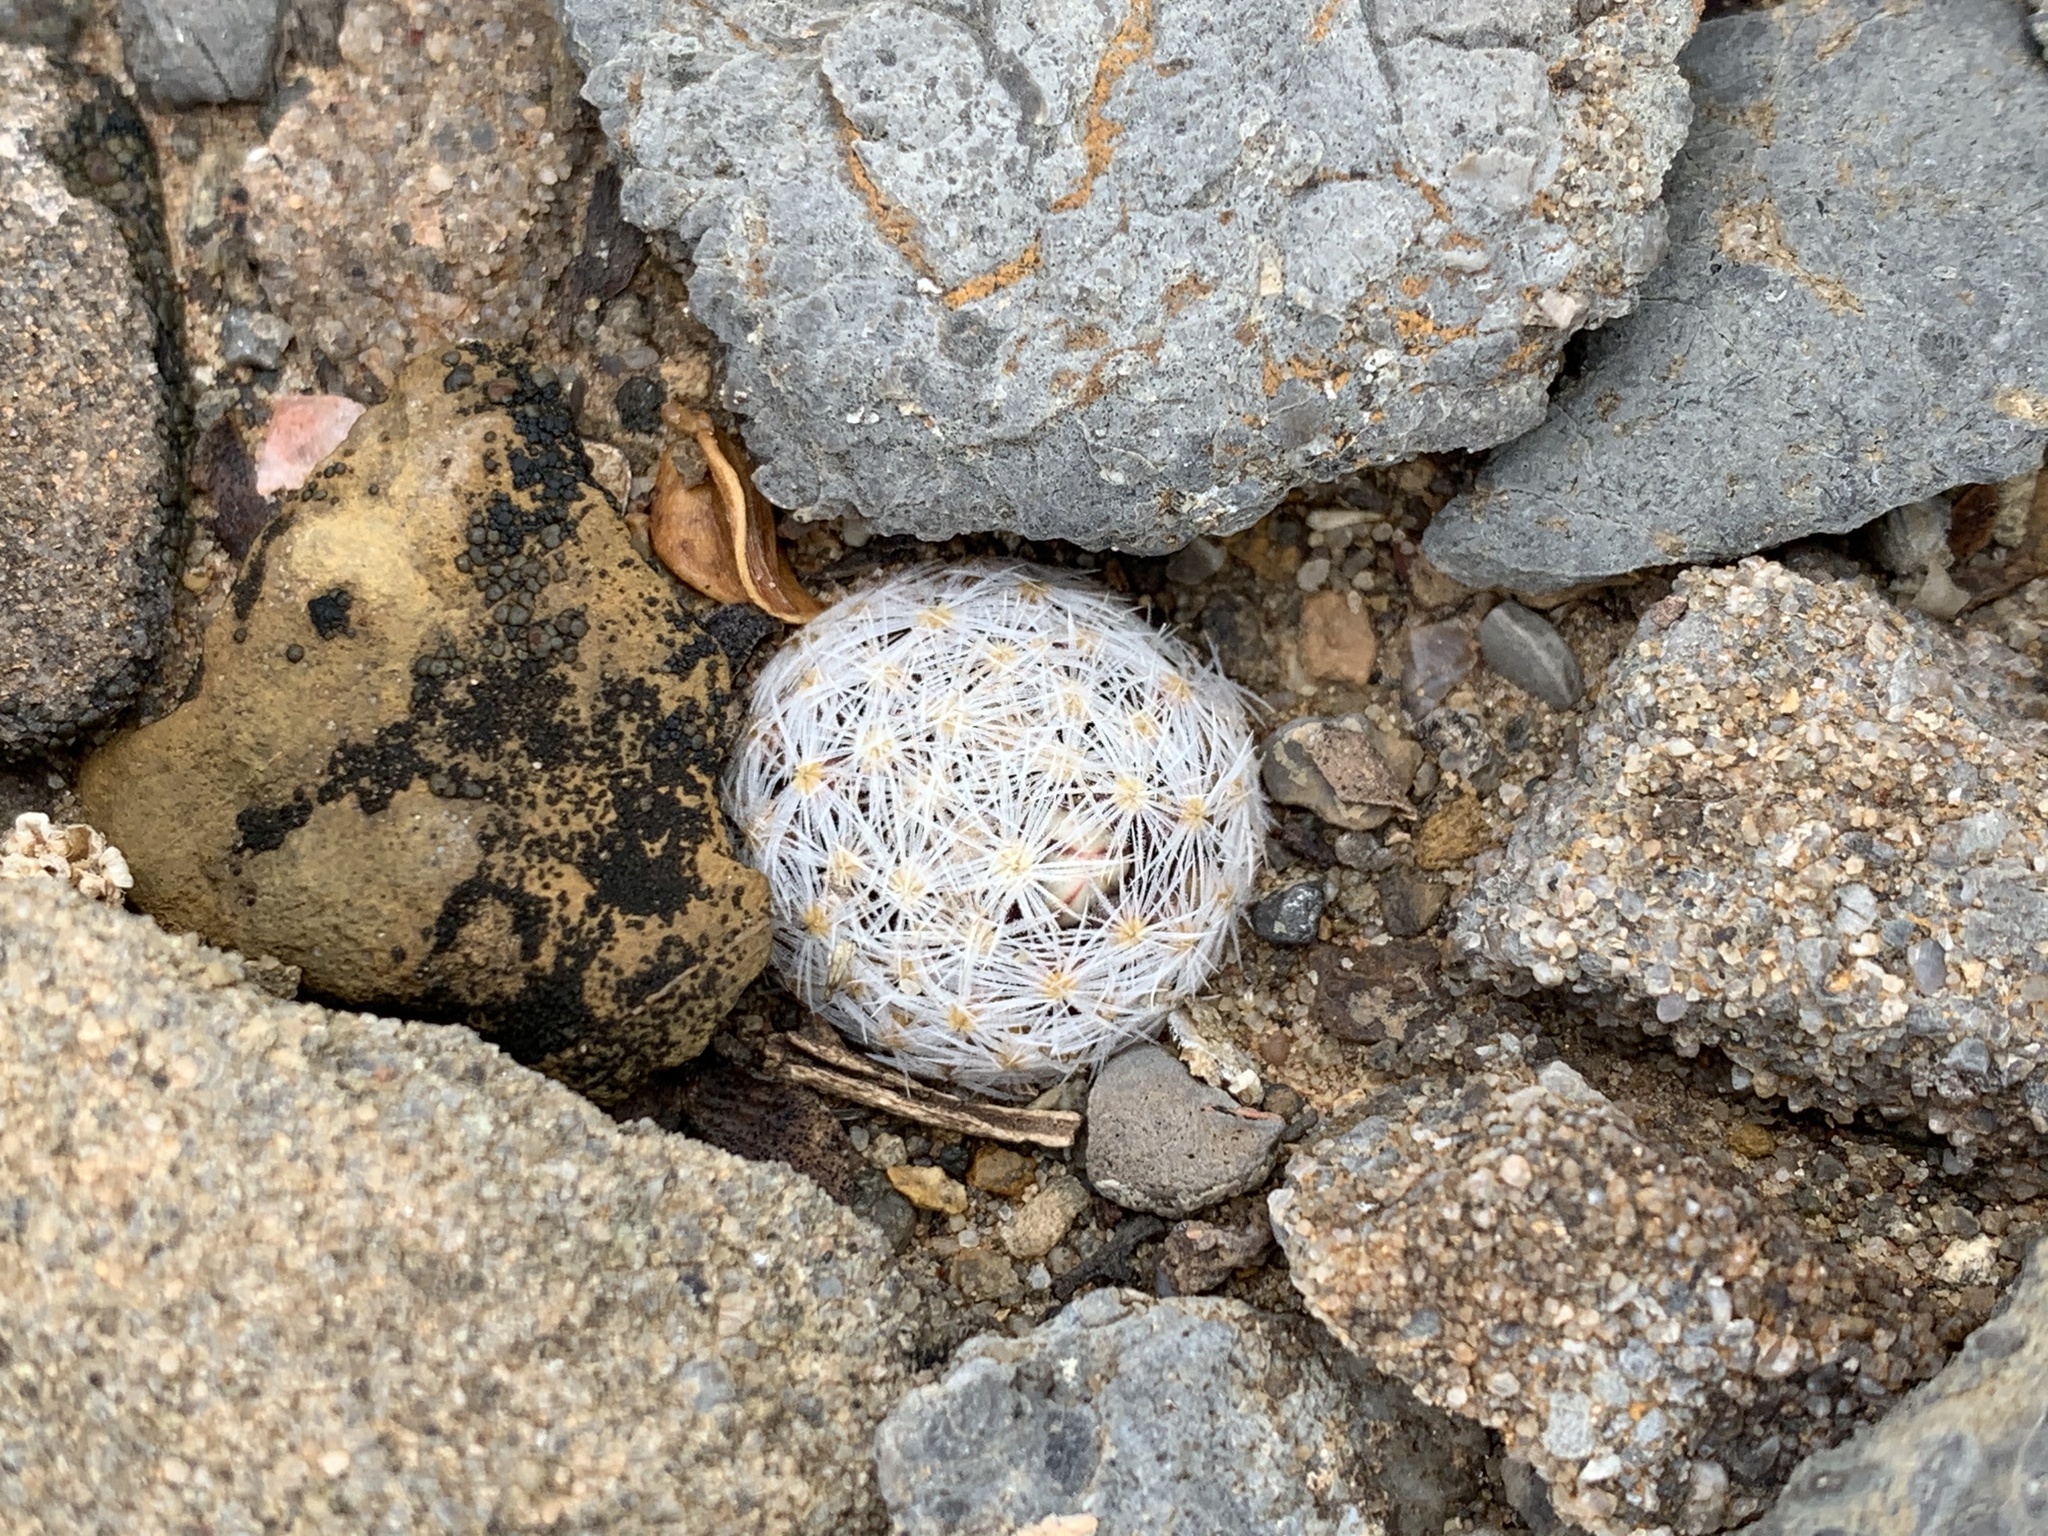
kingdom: Plantae
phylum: Tracheophyta
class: Magnoliopsida
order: Caryophyllales
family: Cactaceae
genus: Mammillaria
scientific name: Mammillaria lasiacantha
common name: Lace-spine nipple cactus
